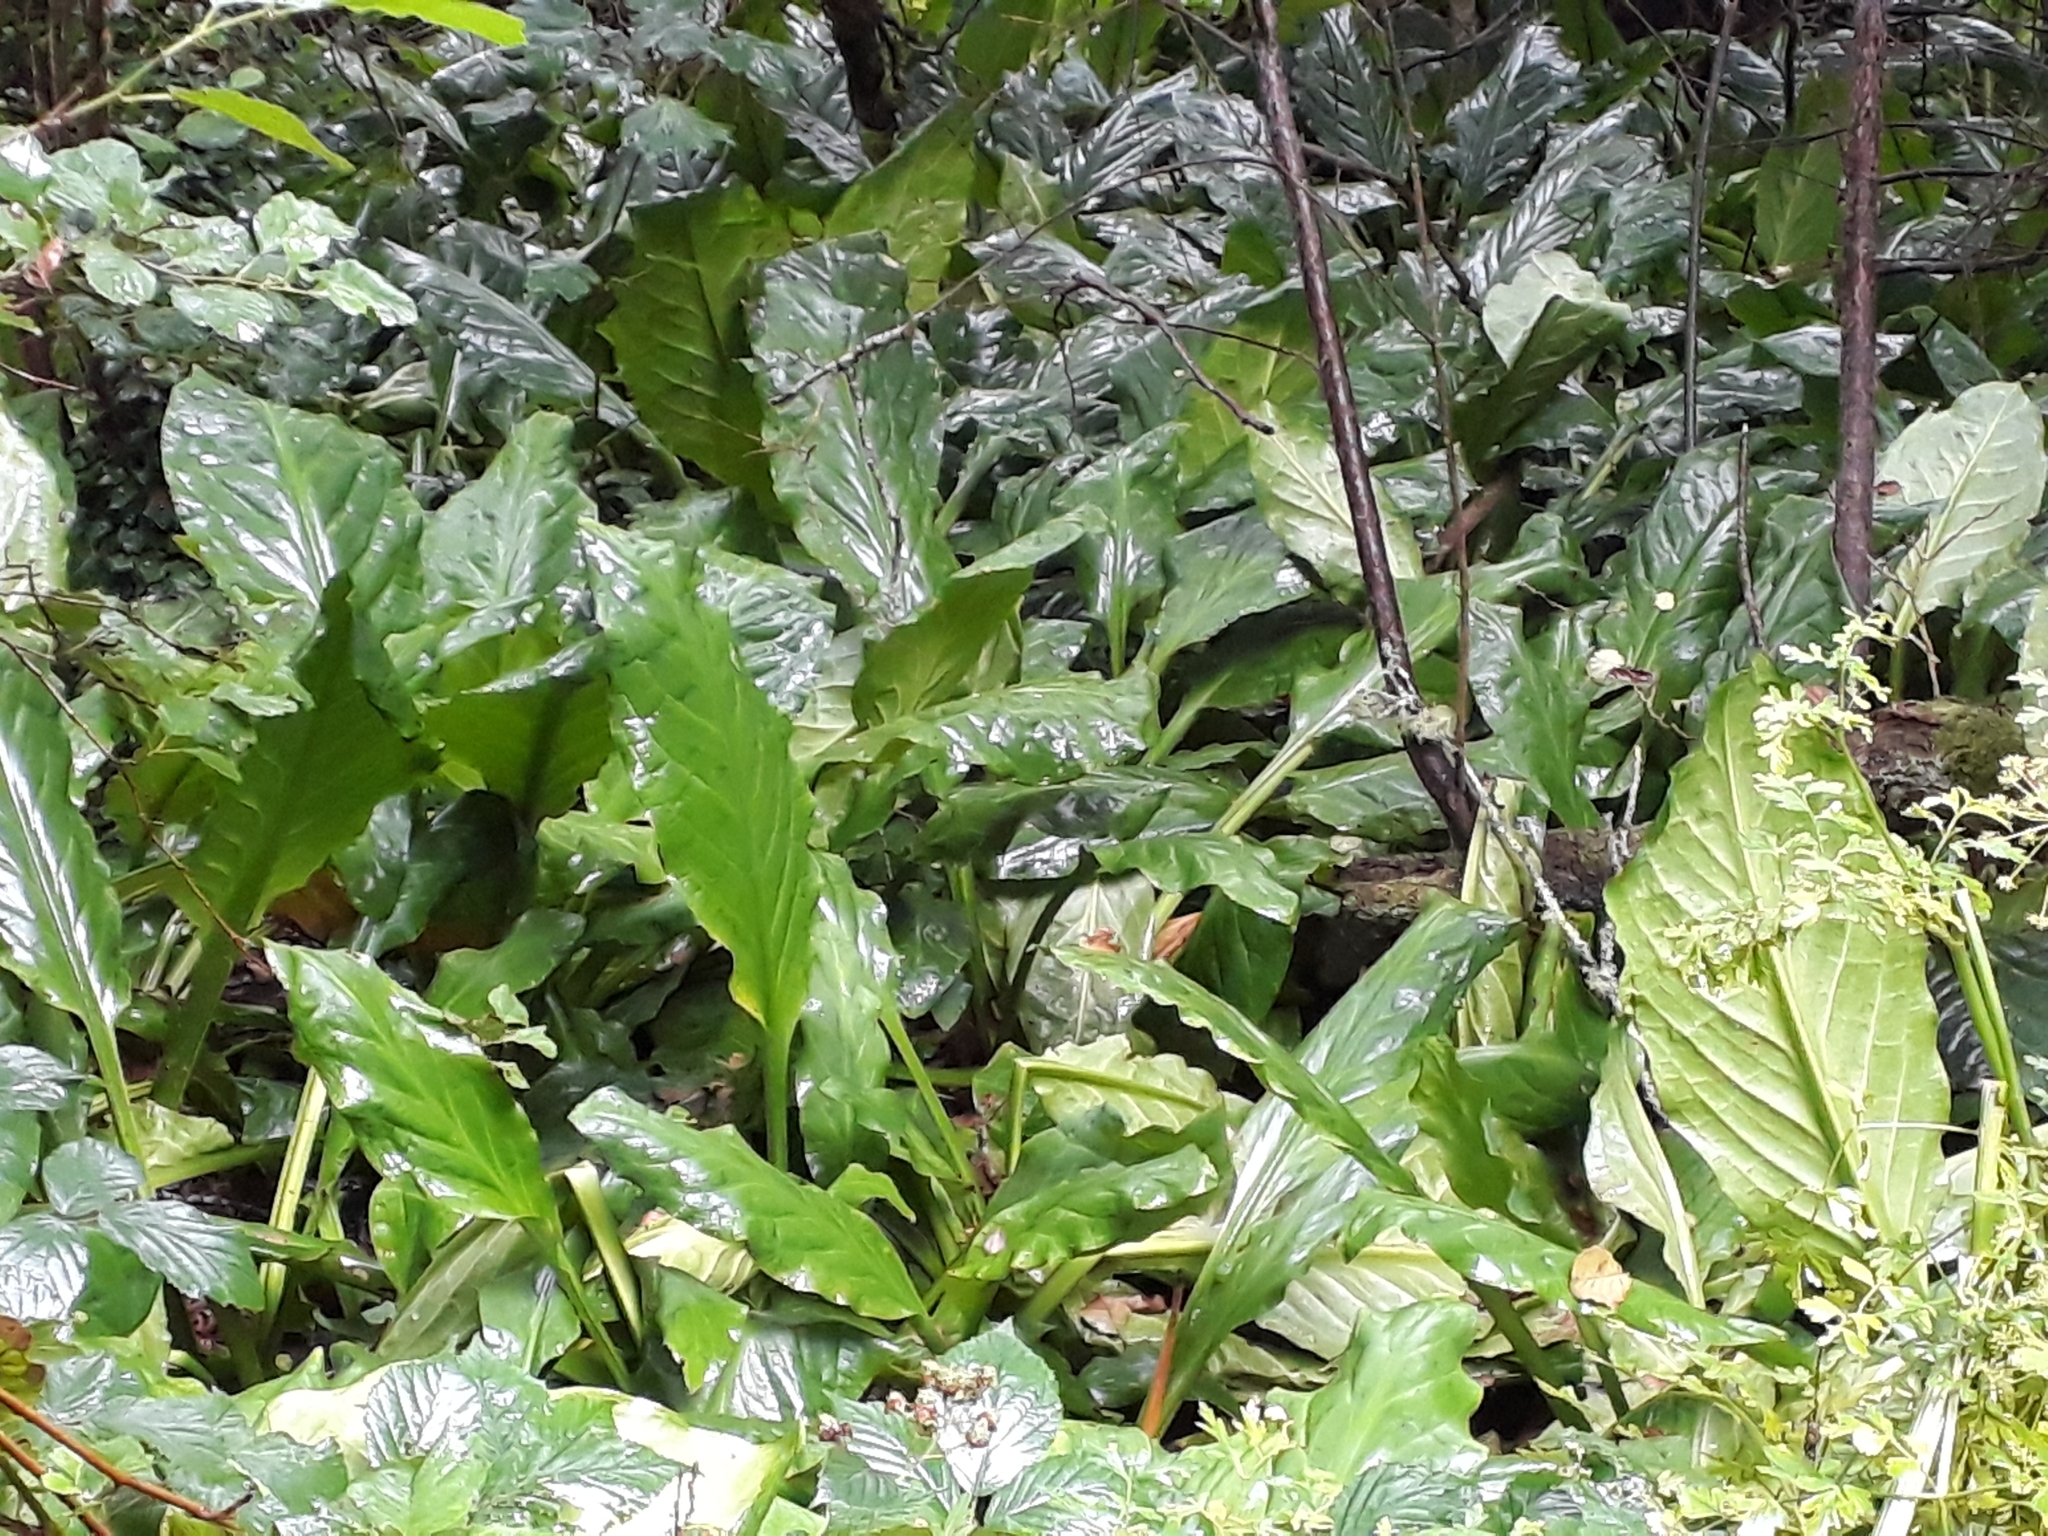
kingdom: Plantae
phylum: Tracheophyta
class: Liliopsida
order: Alismatales
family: Araceae
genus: Lysichiton
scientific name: Lysichiton americanus
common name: American skunk cabbage
